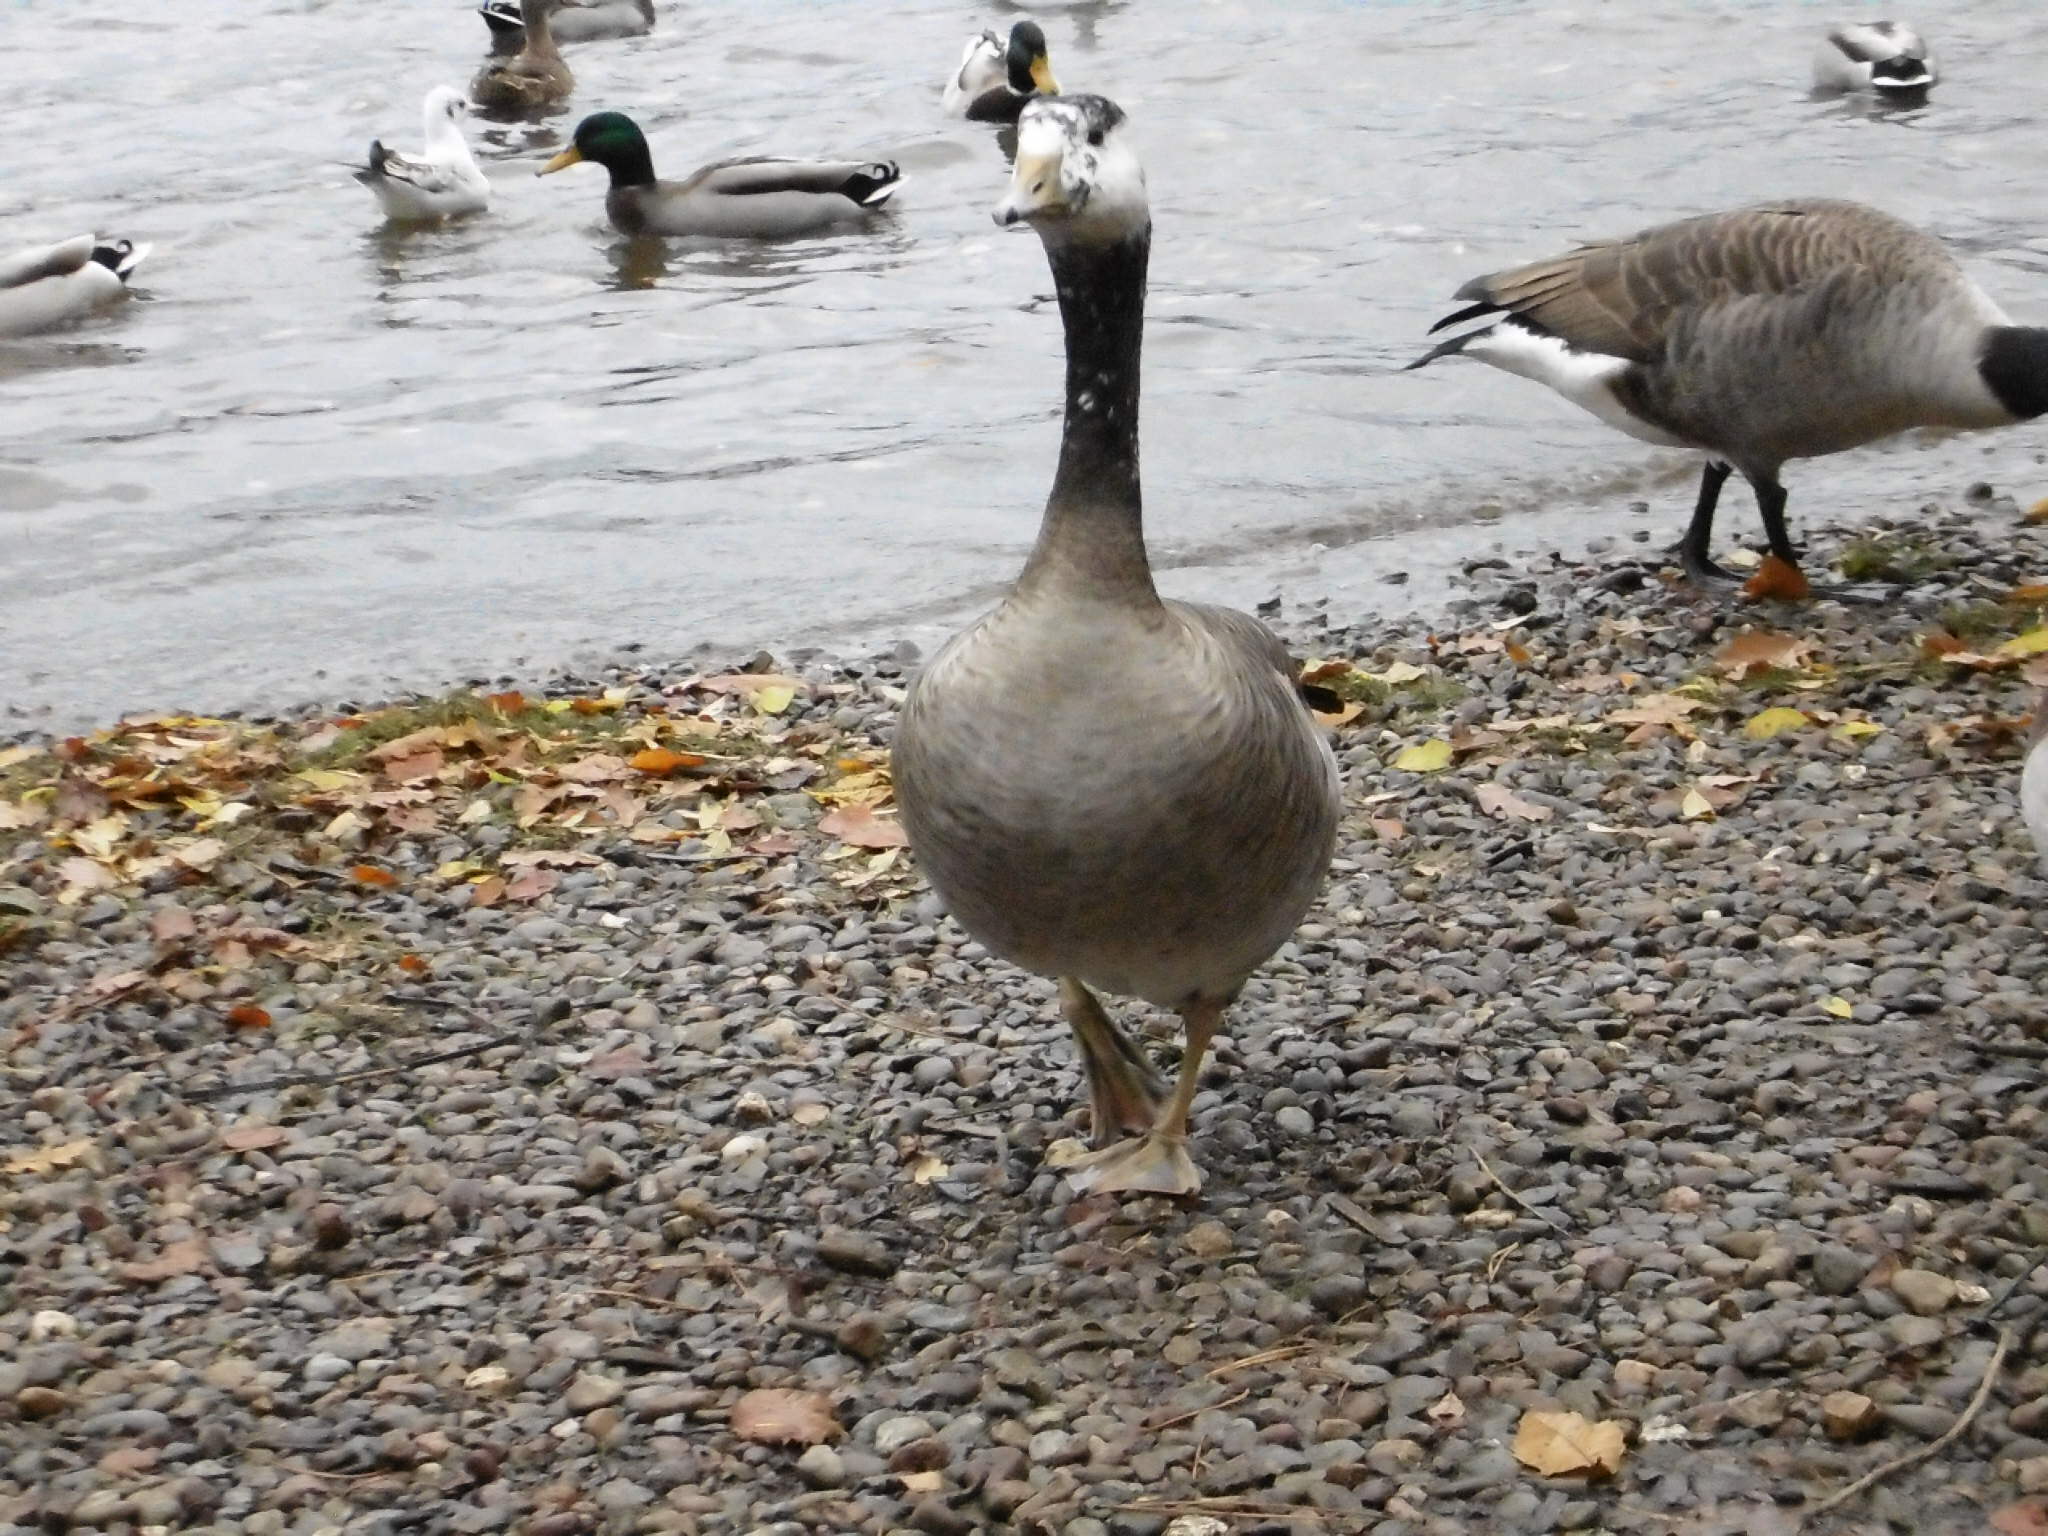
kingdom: Animalia
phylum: Chordata
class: Aves
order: Anseriformes
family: Anatidae
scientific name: Anatidae
